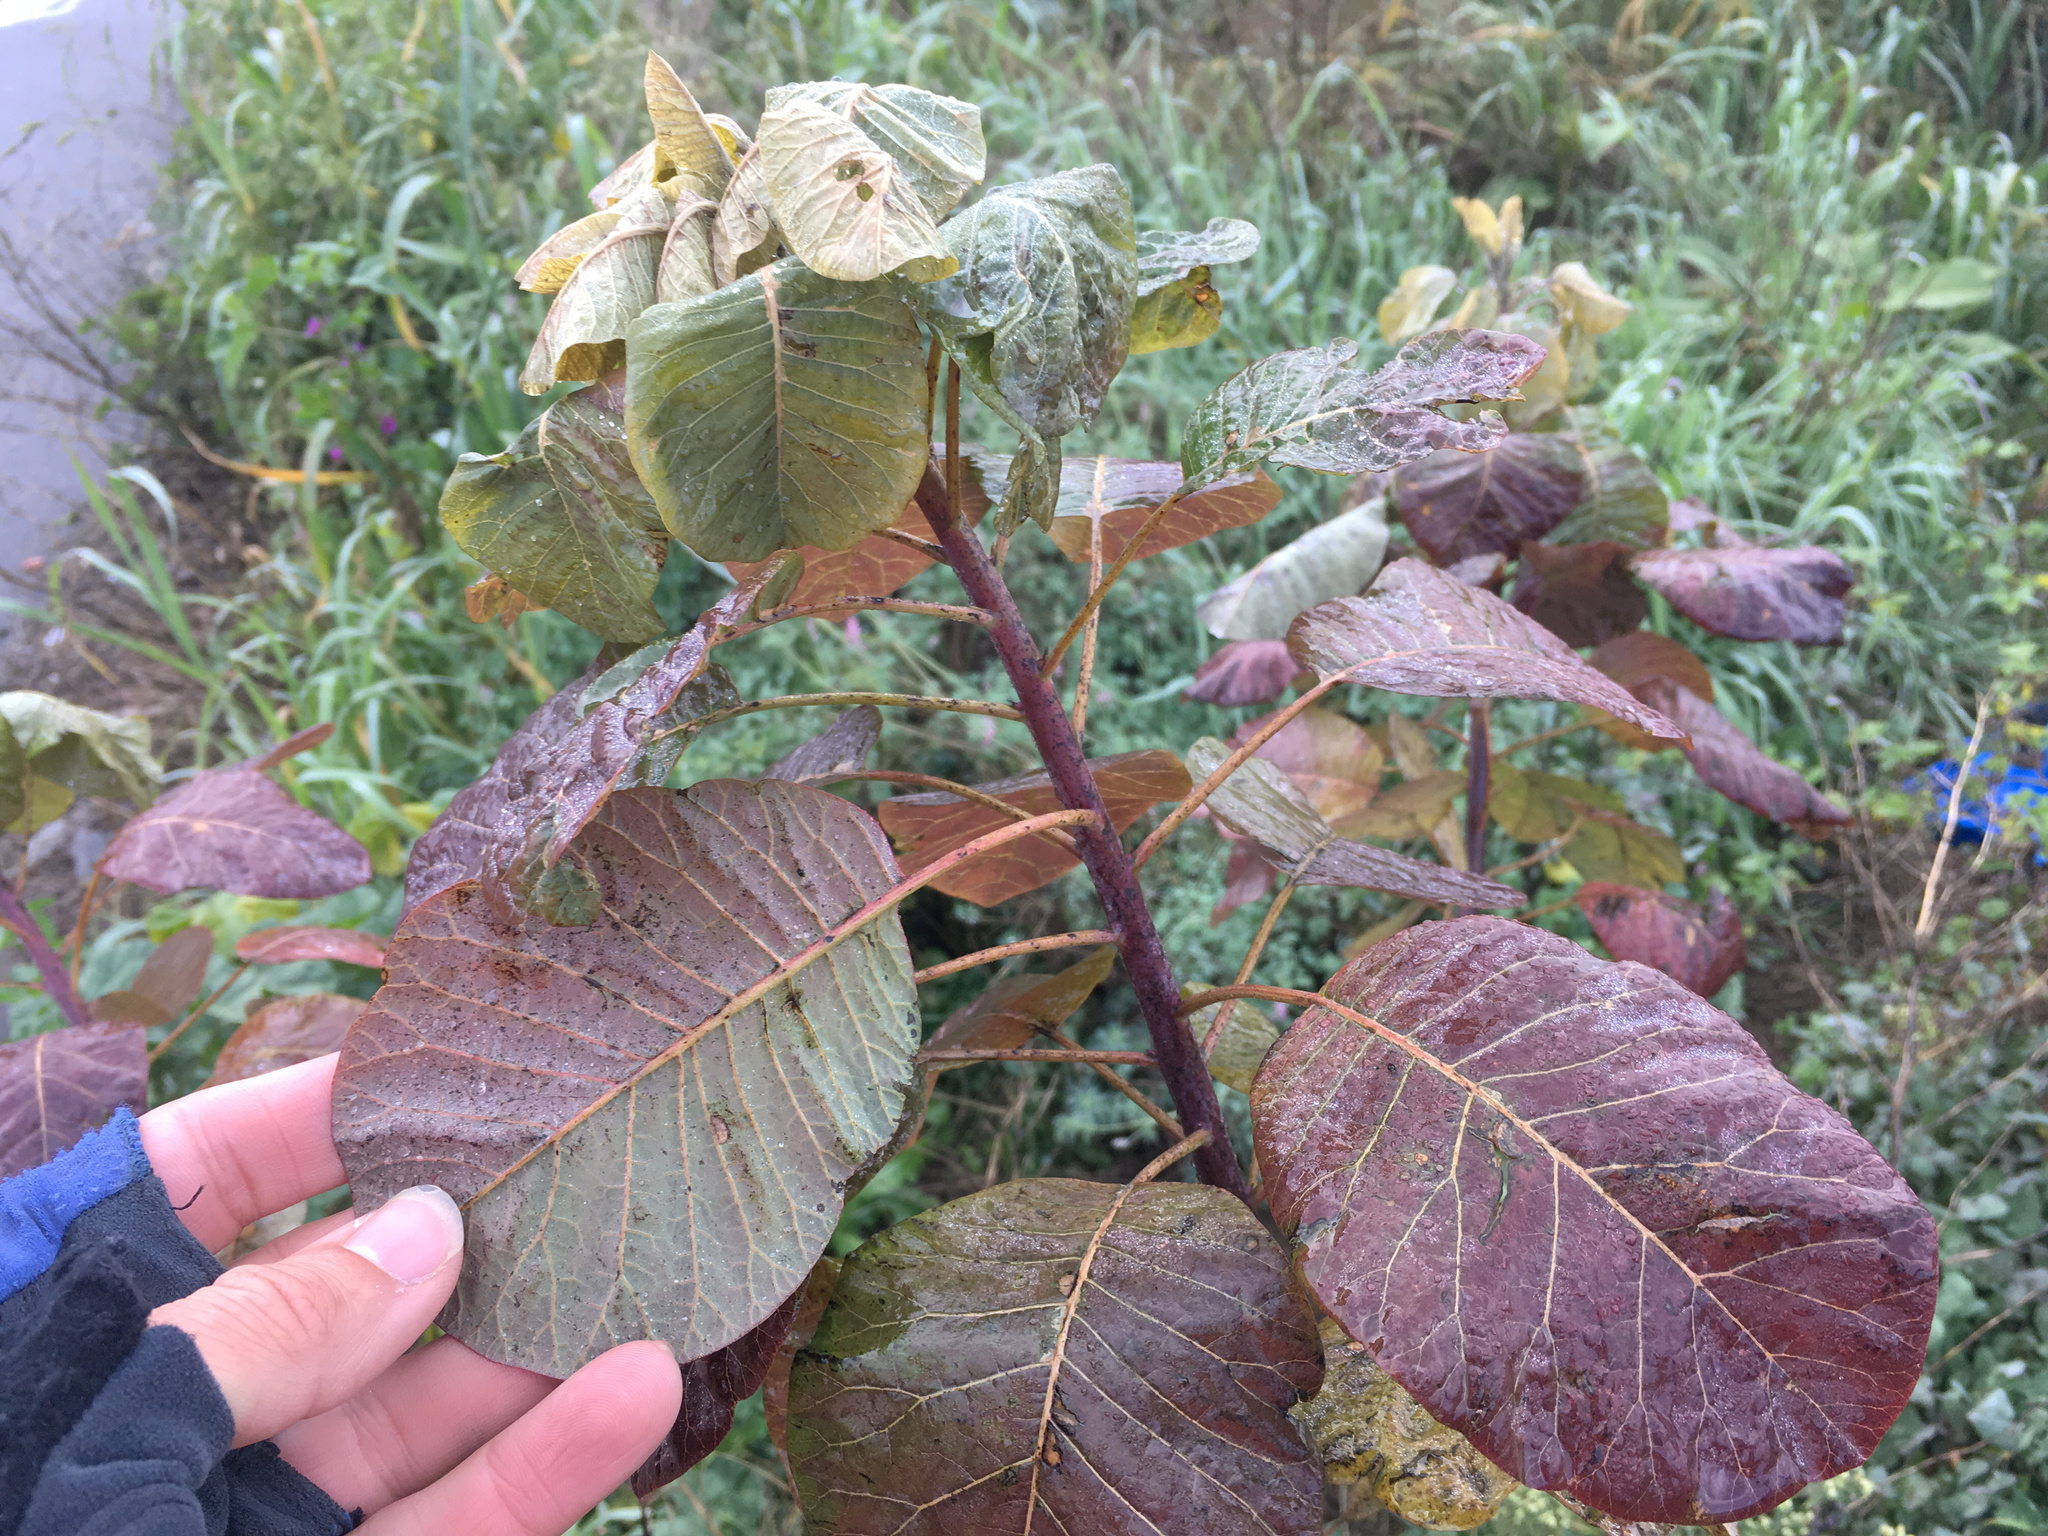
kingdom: Plantae
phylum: Tracheophyta
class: Magnoliopsida
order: Sapindales
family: Anacardiaceae
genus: Cotinus
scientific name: Cotinus coggygria
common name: Smoke-tree
